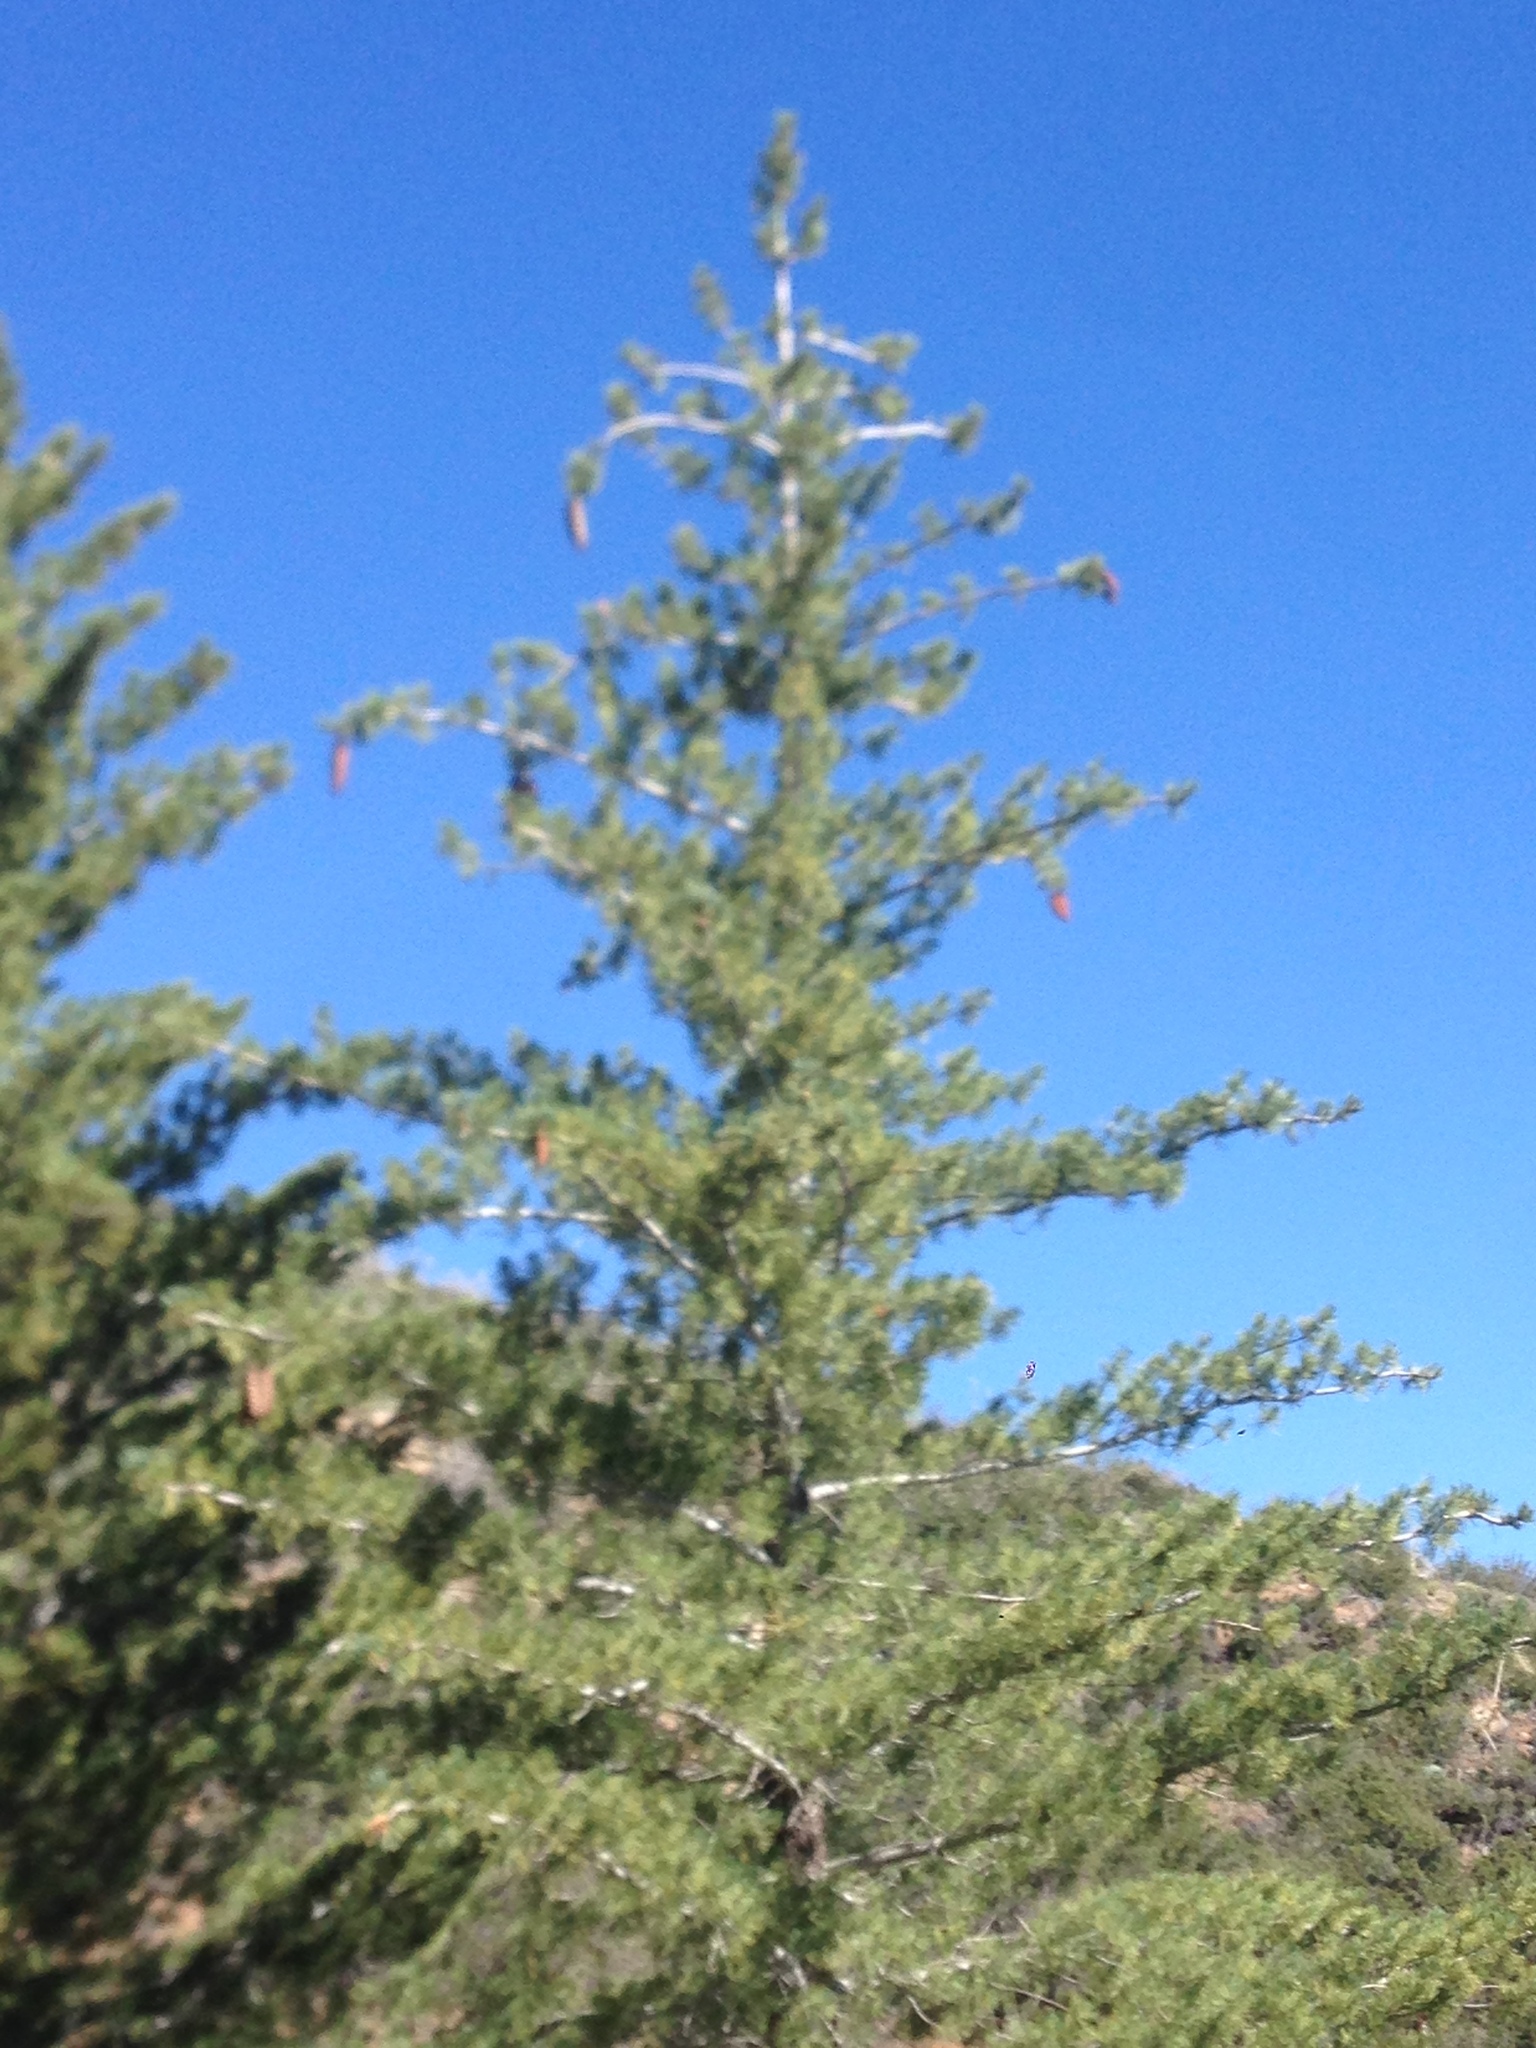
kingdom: Plantae
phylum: Tracheophyta
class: Pinopsida
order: Pinales
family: Pinaceae
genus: Pinus
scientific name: Pinus lambertiana
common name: Sugar pine
